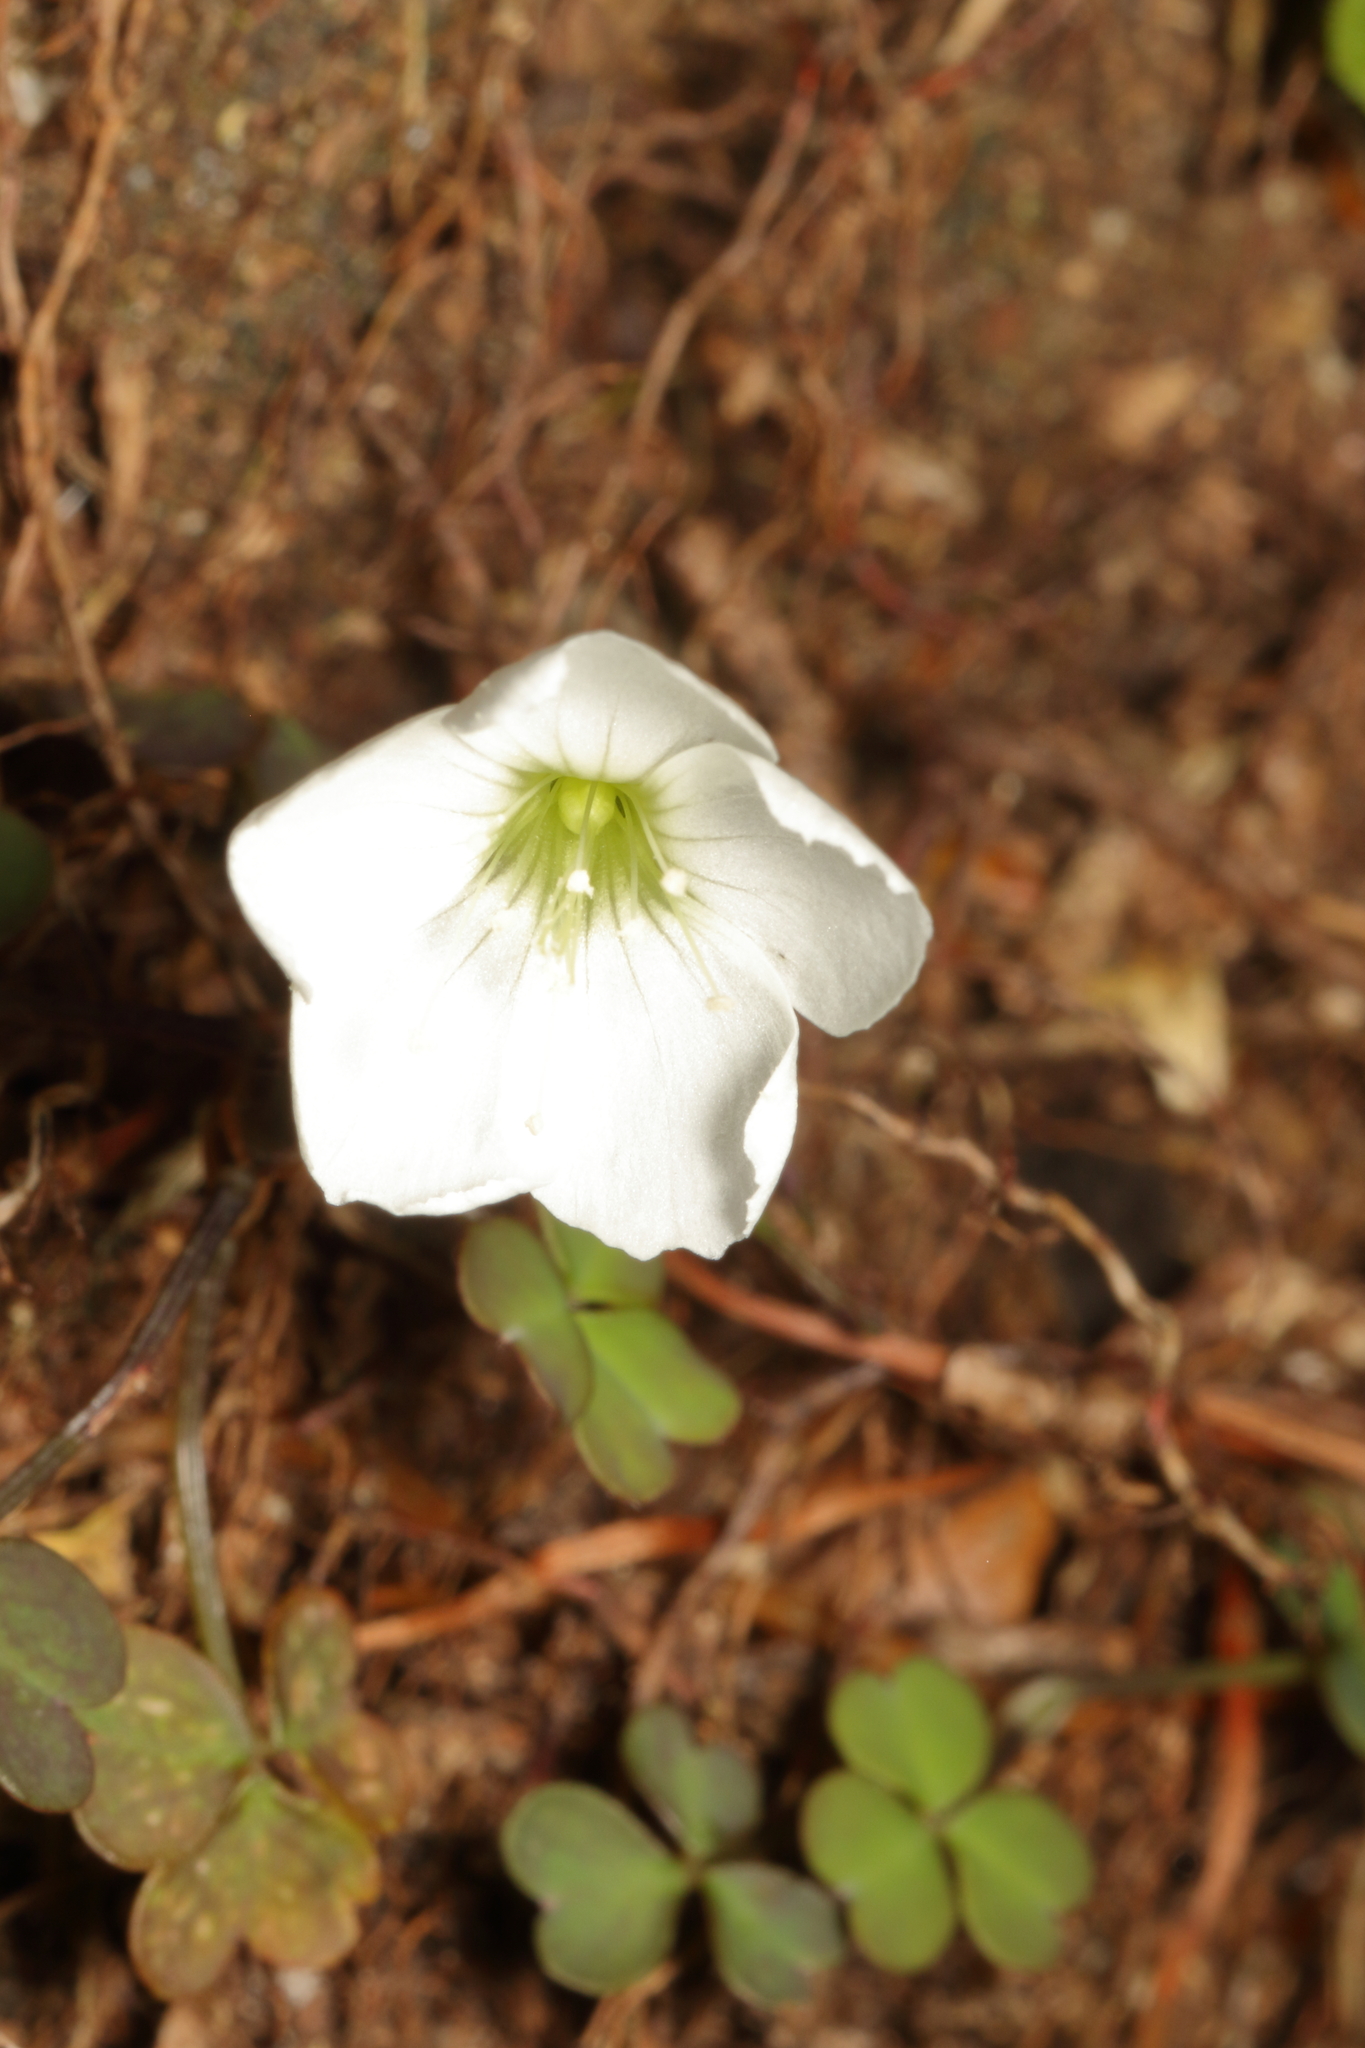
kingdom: Plantae
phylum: Tracheophyta
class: Magnoliopsida
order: Oxalidales
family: Oxalidaceae
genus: Oxalis
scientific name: Oxalis magellanica
